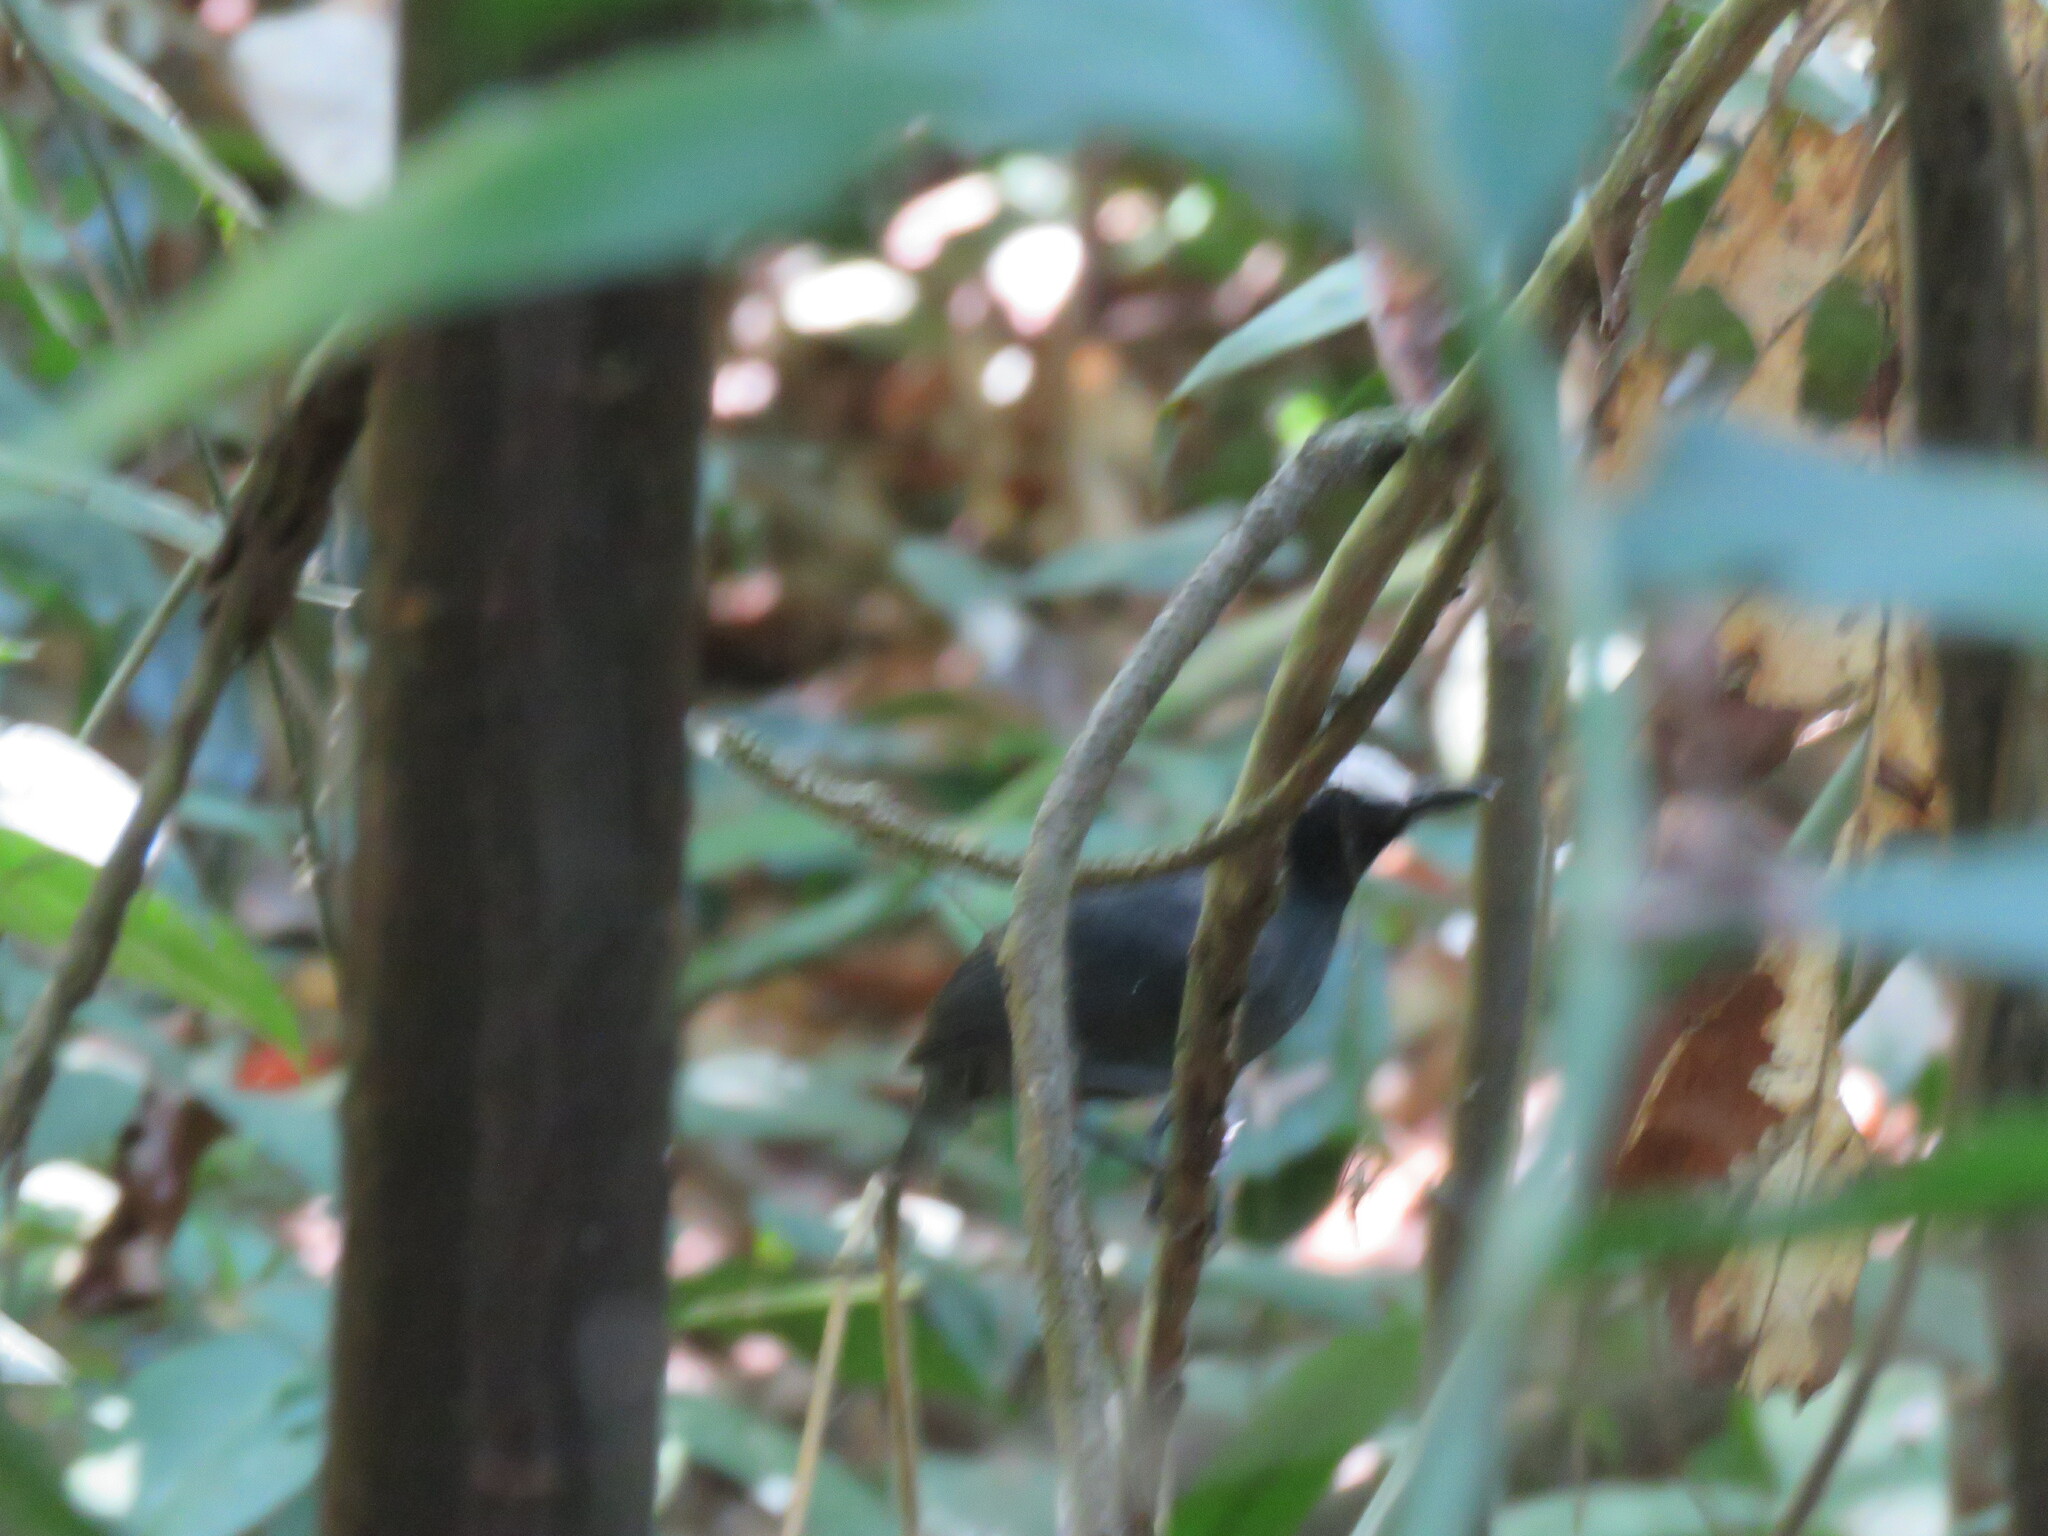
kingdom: Animalia
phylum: Chordata
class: Aves
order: Passeriformes
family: Thamnophilidae
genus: Myrmoborus
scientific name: Myrmoborus leucophrys
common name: White-browed antbird
